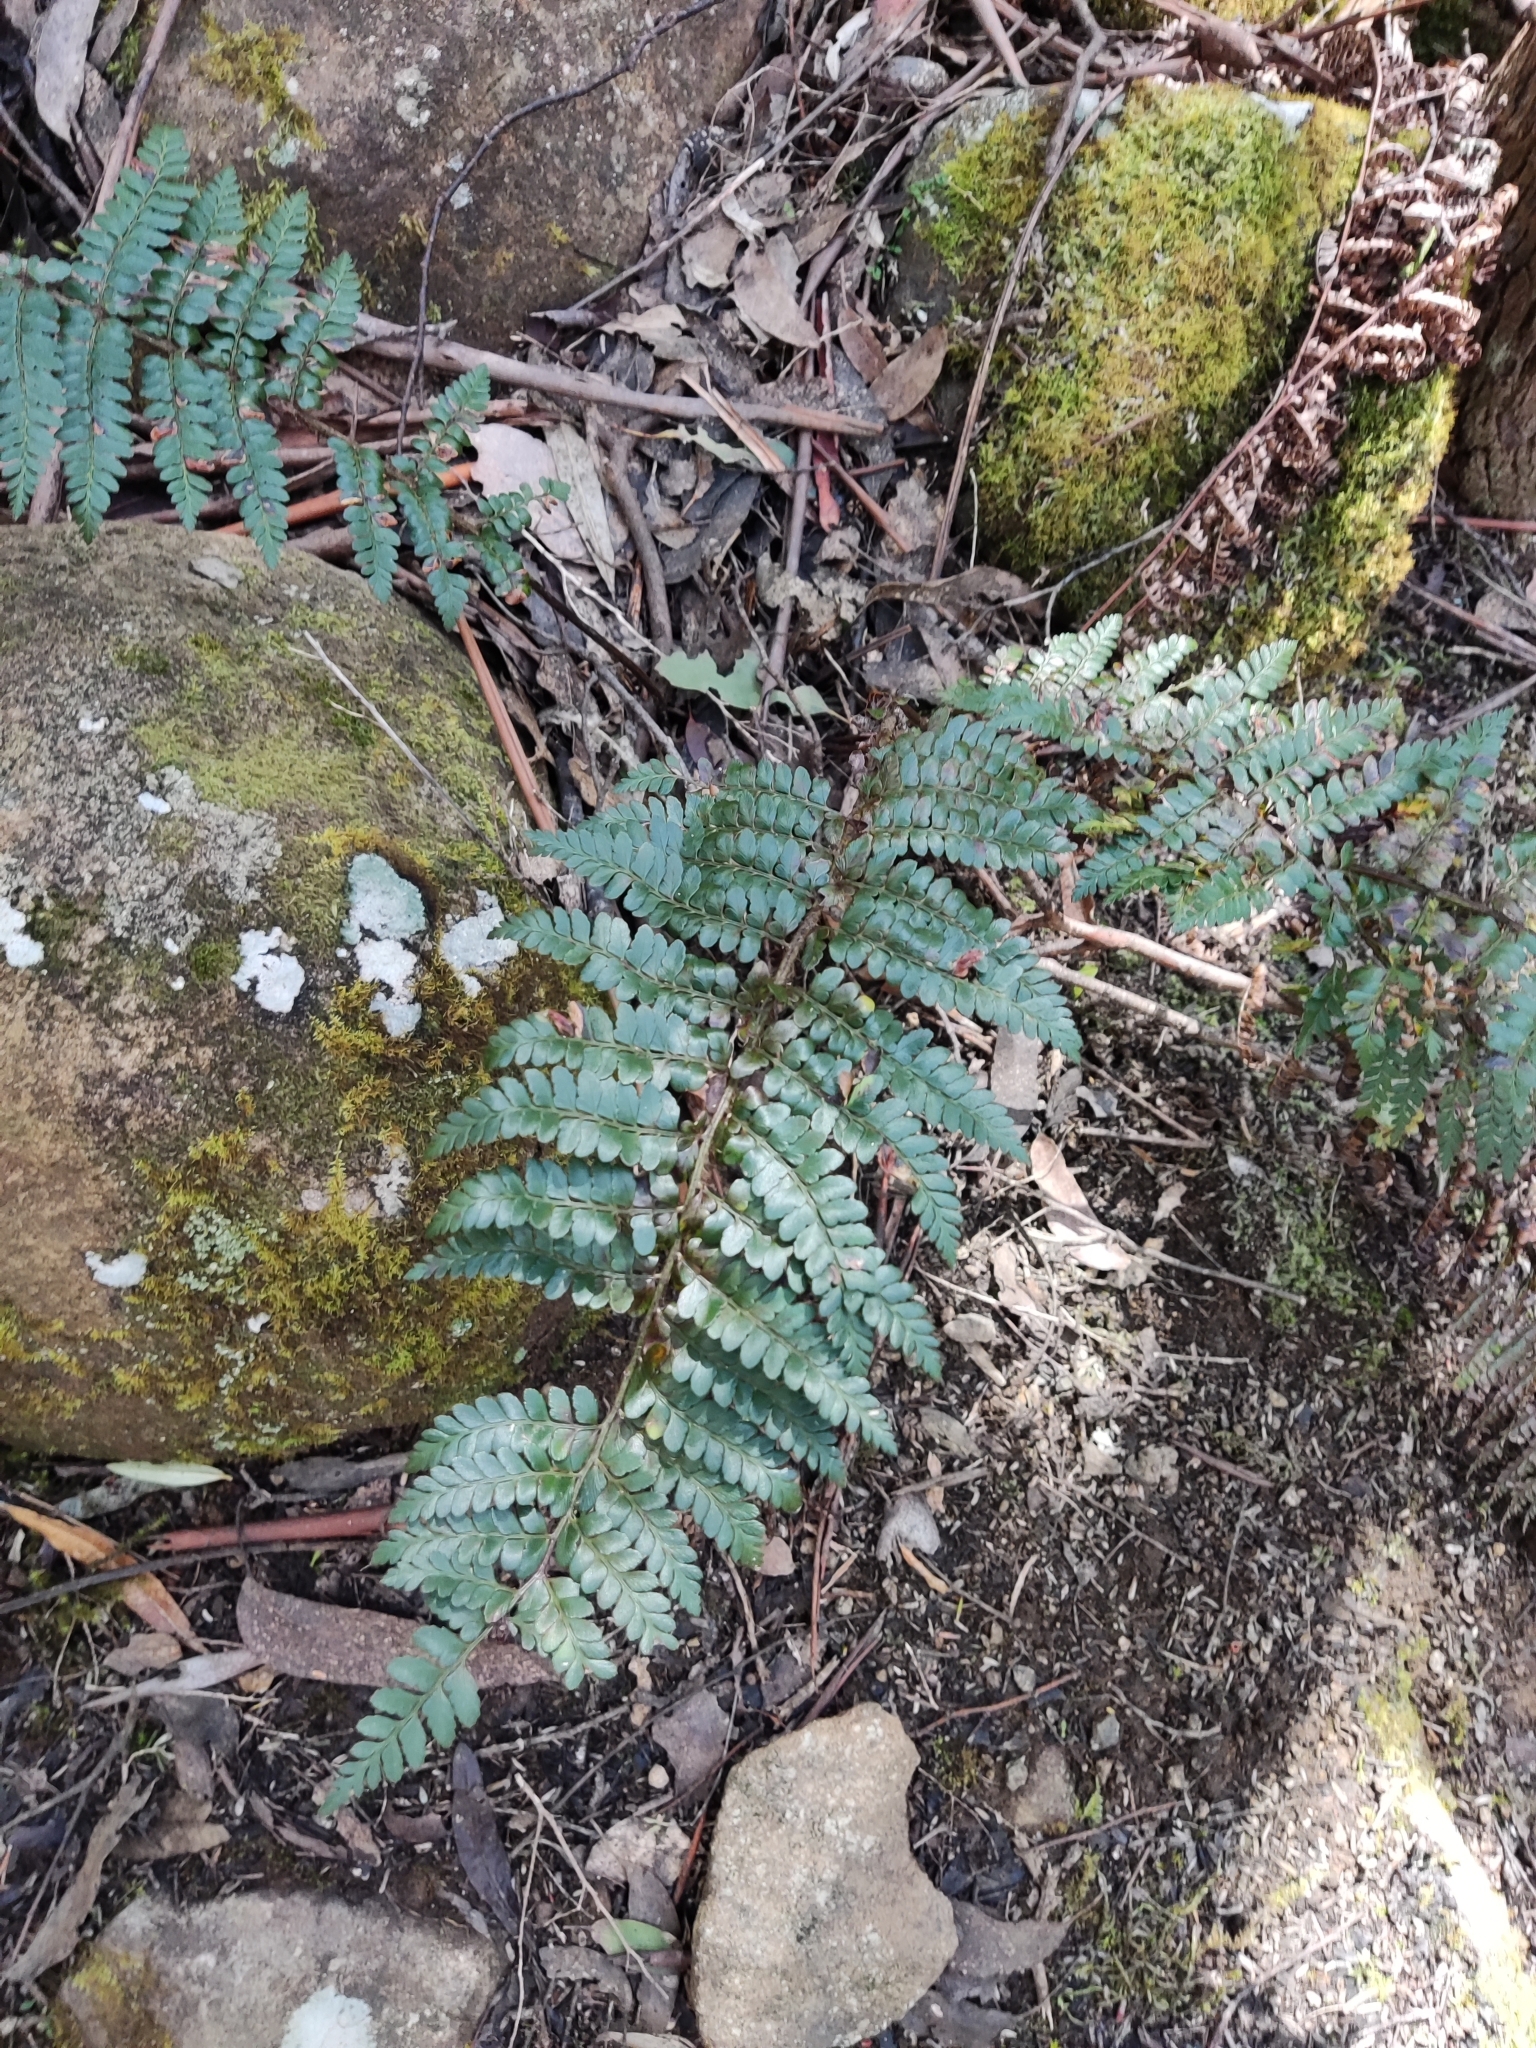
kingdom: Plantae
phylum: Tracheophyta
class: Polypodiopsida
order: Polypodiales
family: Dryopteridaceae
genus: Polystichum
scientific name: Polystichum proliferum
